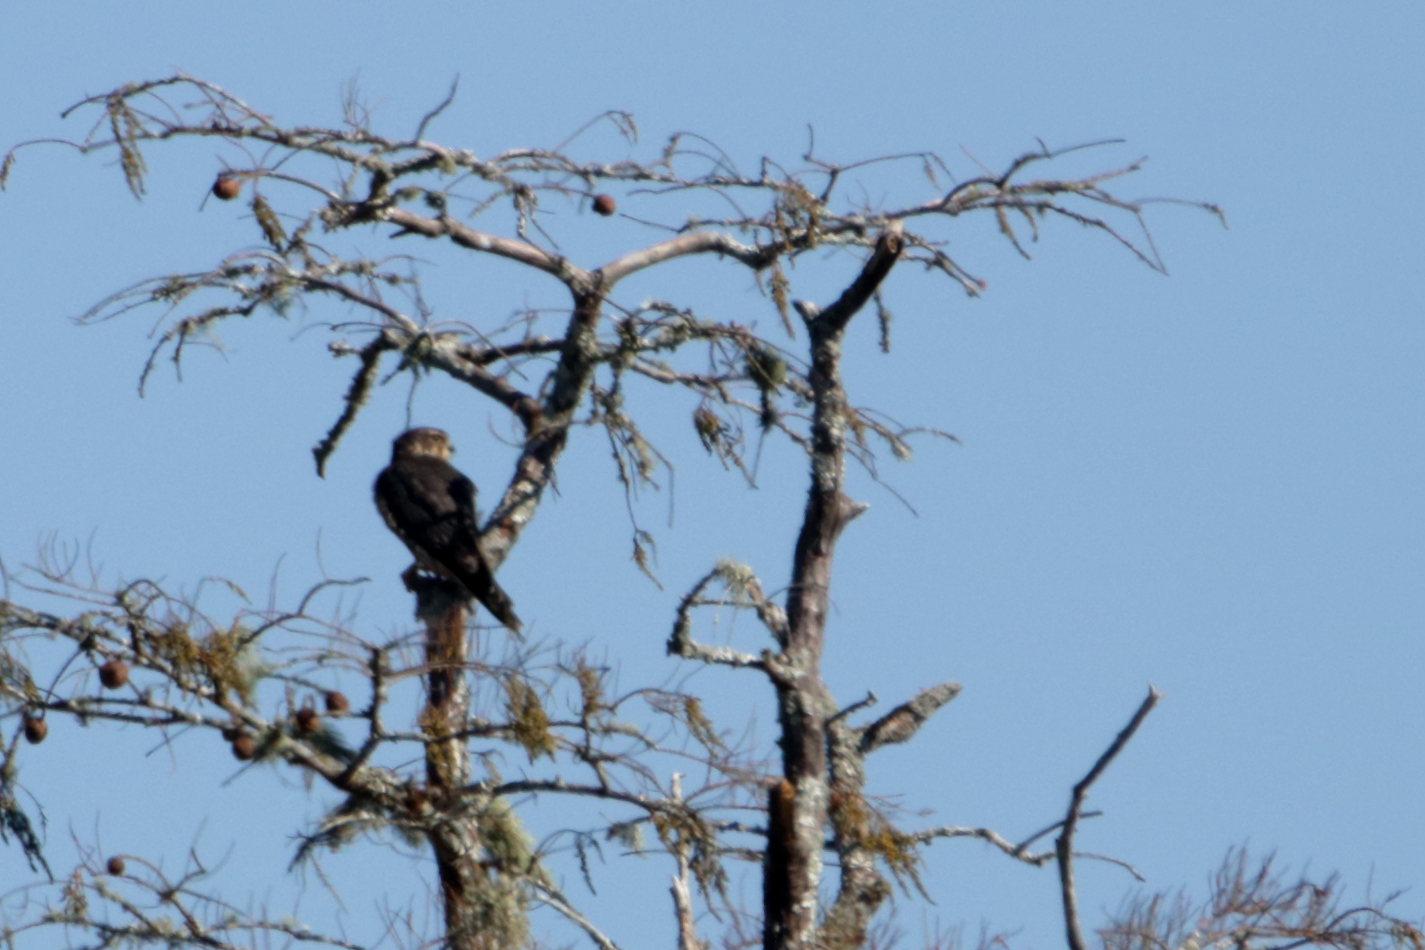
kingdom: Animalia
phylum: Chordata
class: Aves
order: Falconiformes
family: Falconidae
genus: Falco
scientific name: Falco columbarius
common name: Merlin
